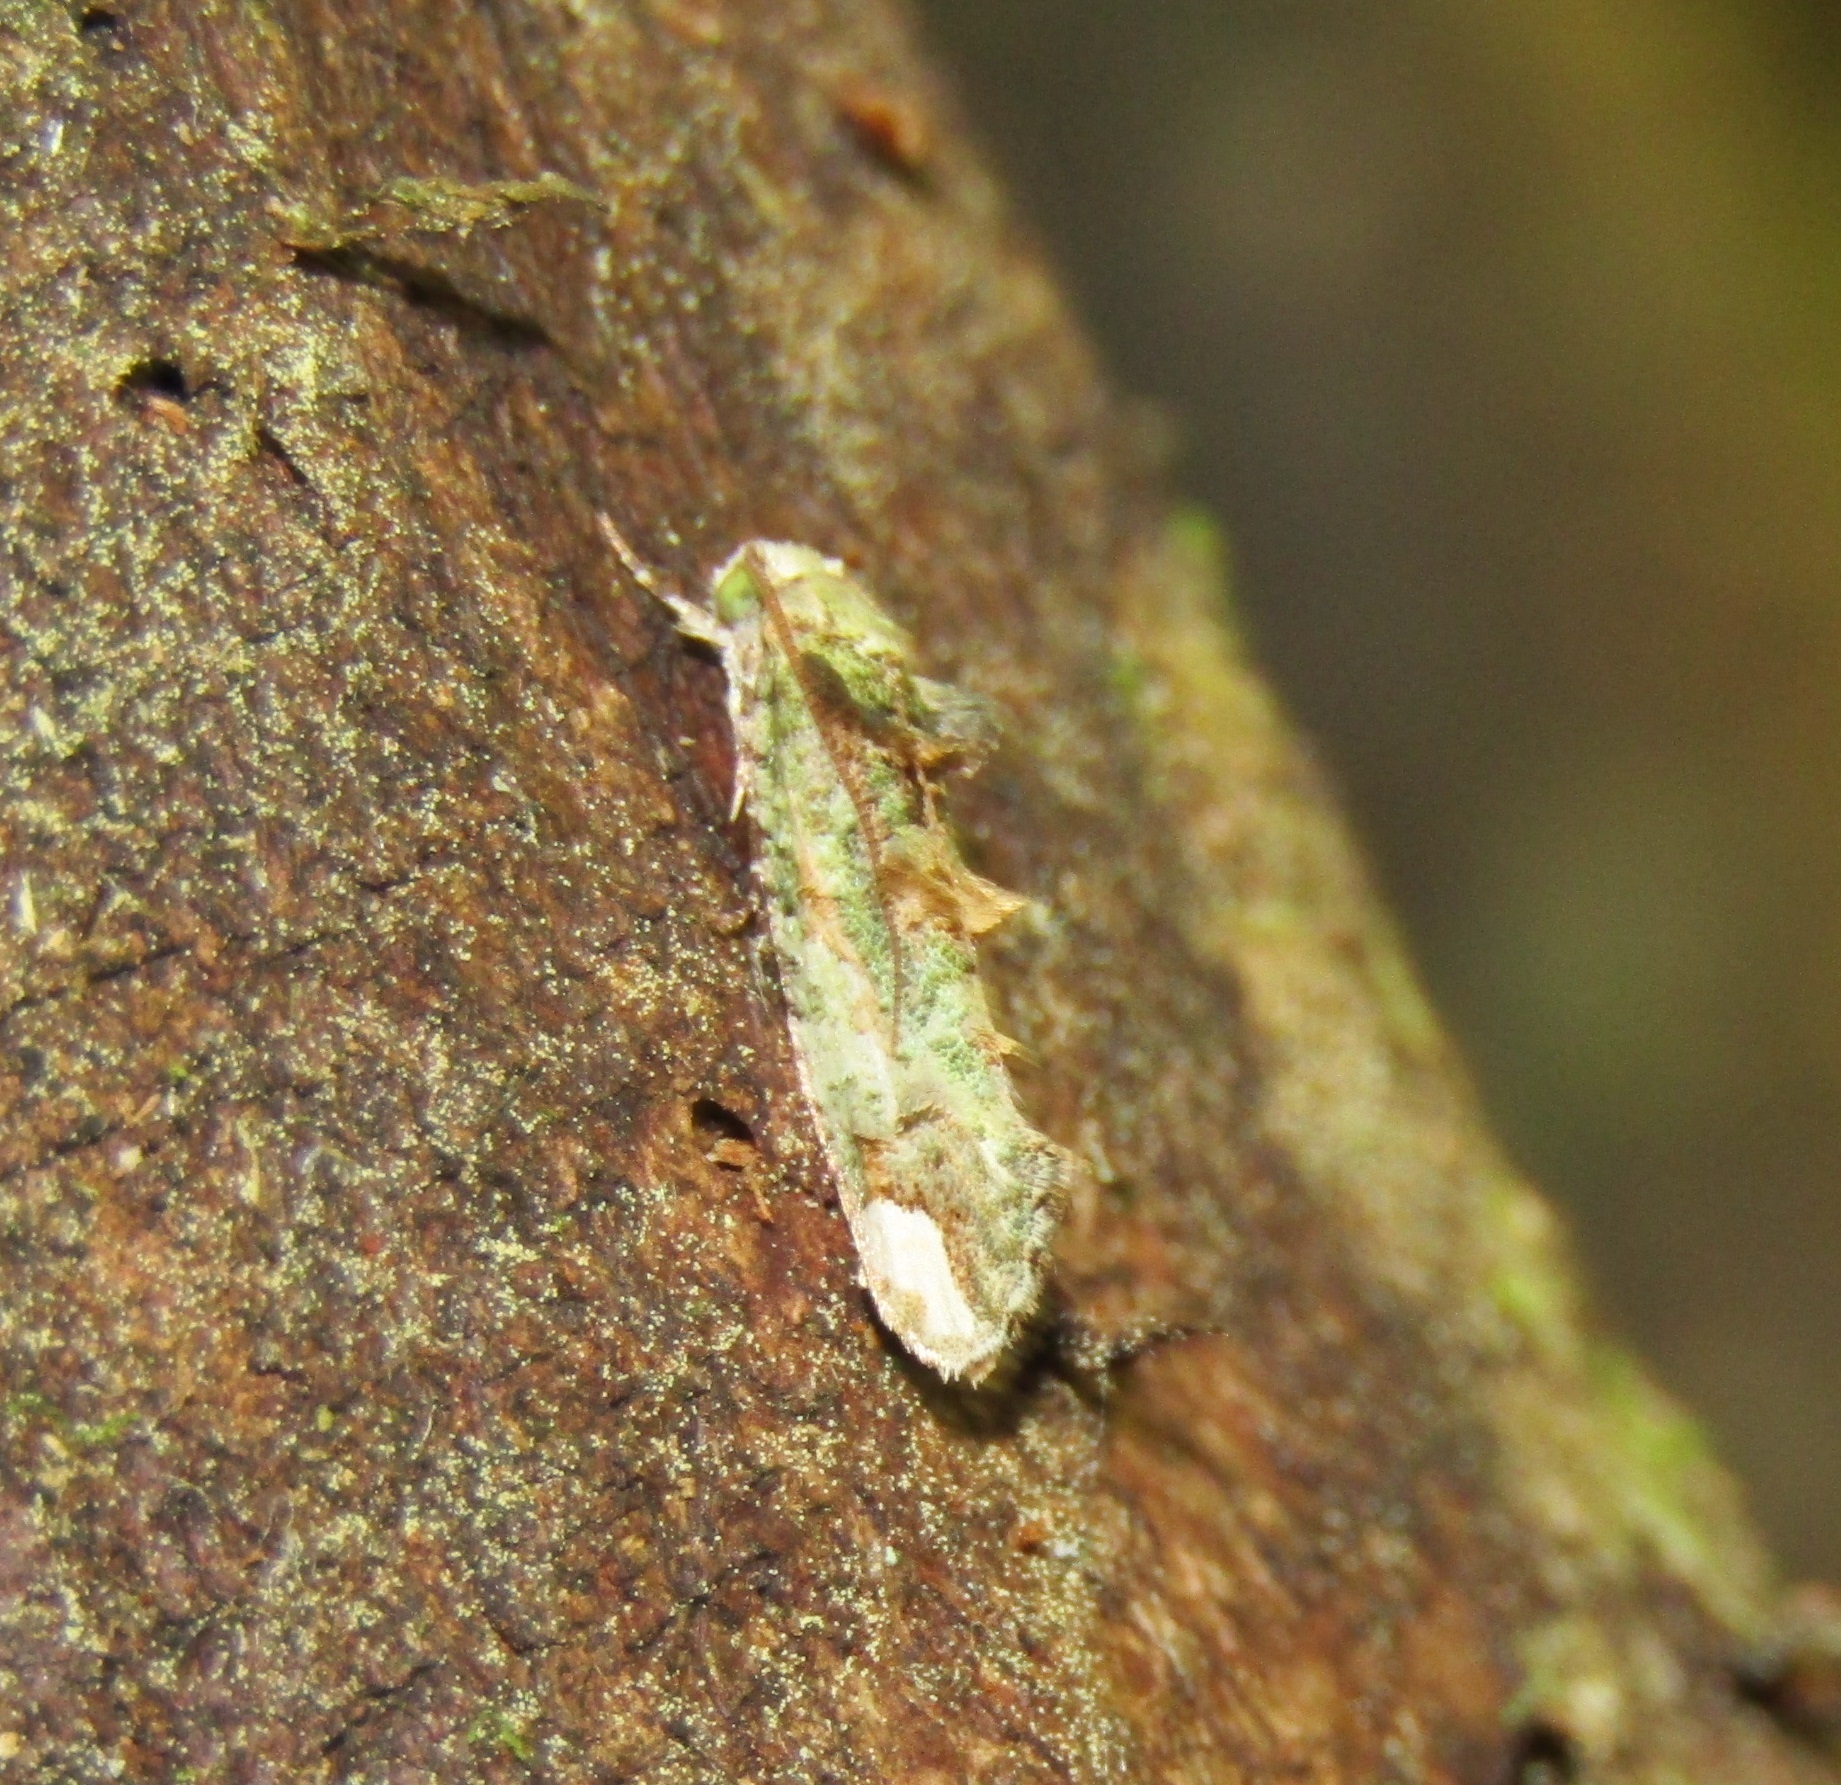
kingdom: Animalia
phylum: Arthropoda
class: Insecta
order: Lepidoptera
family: Tineidae
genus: Lysiphragma
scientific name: Lysiphragma mixochlora
